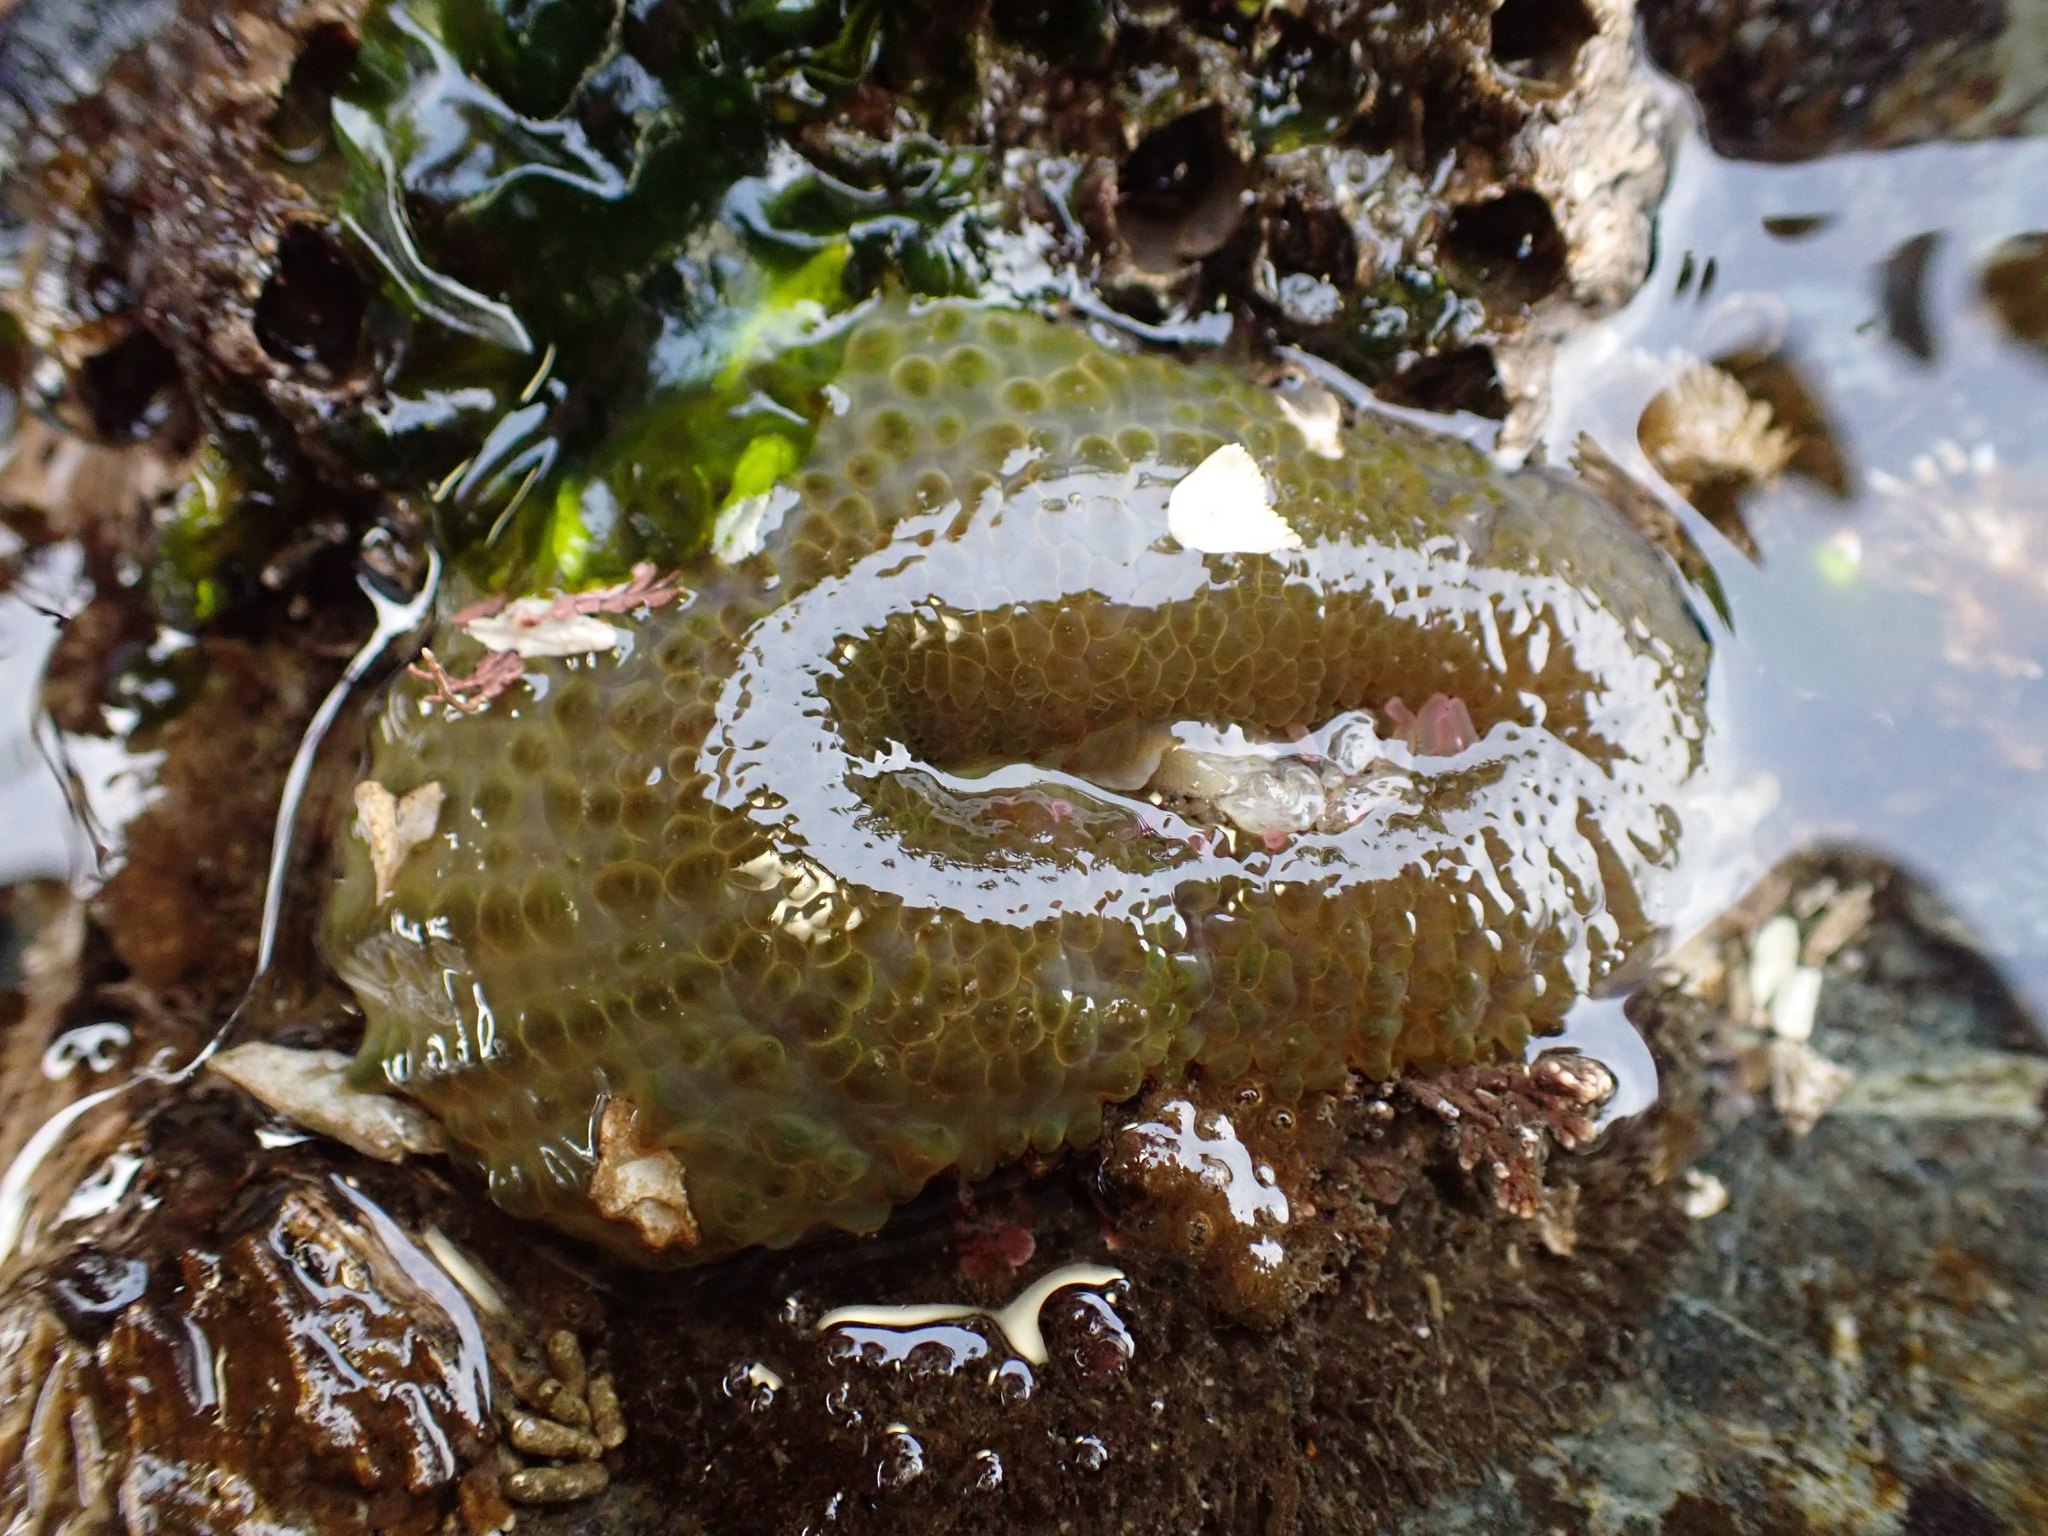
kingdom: Animalia
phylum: Cnidaria
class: Anthozoa
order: Actiniaria
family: Actiniidae
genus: Anthopleura
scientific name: Anthopleura elegantissima
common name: Clonal anemone
